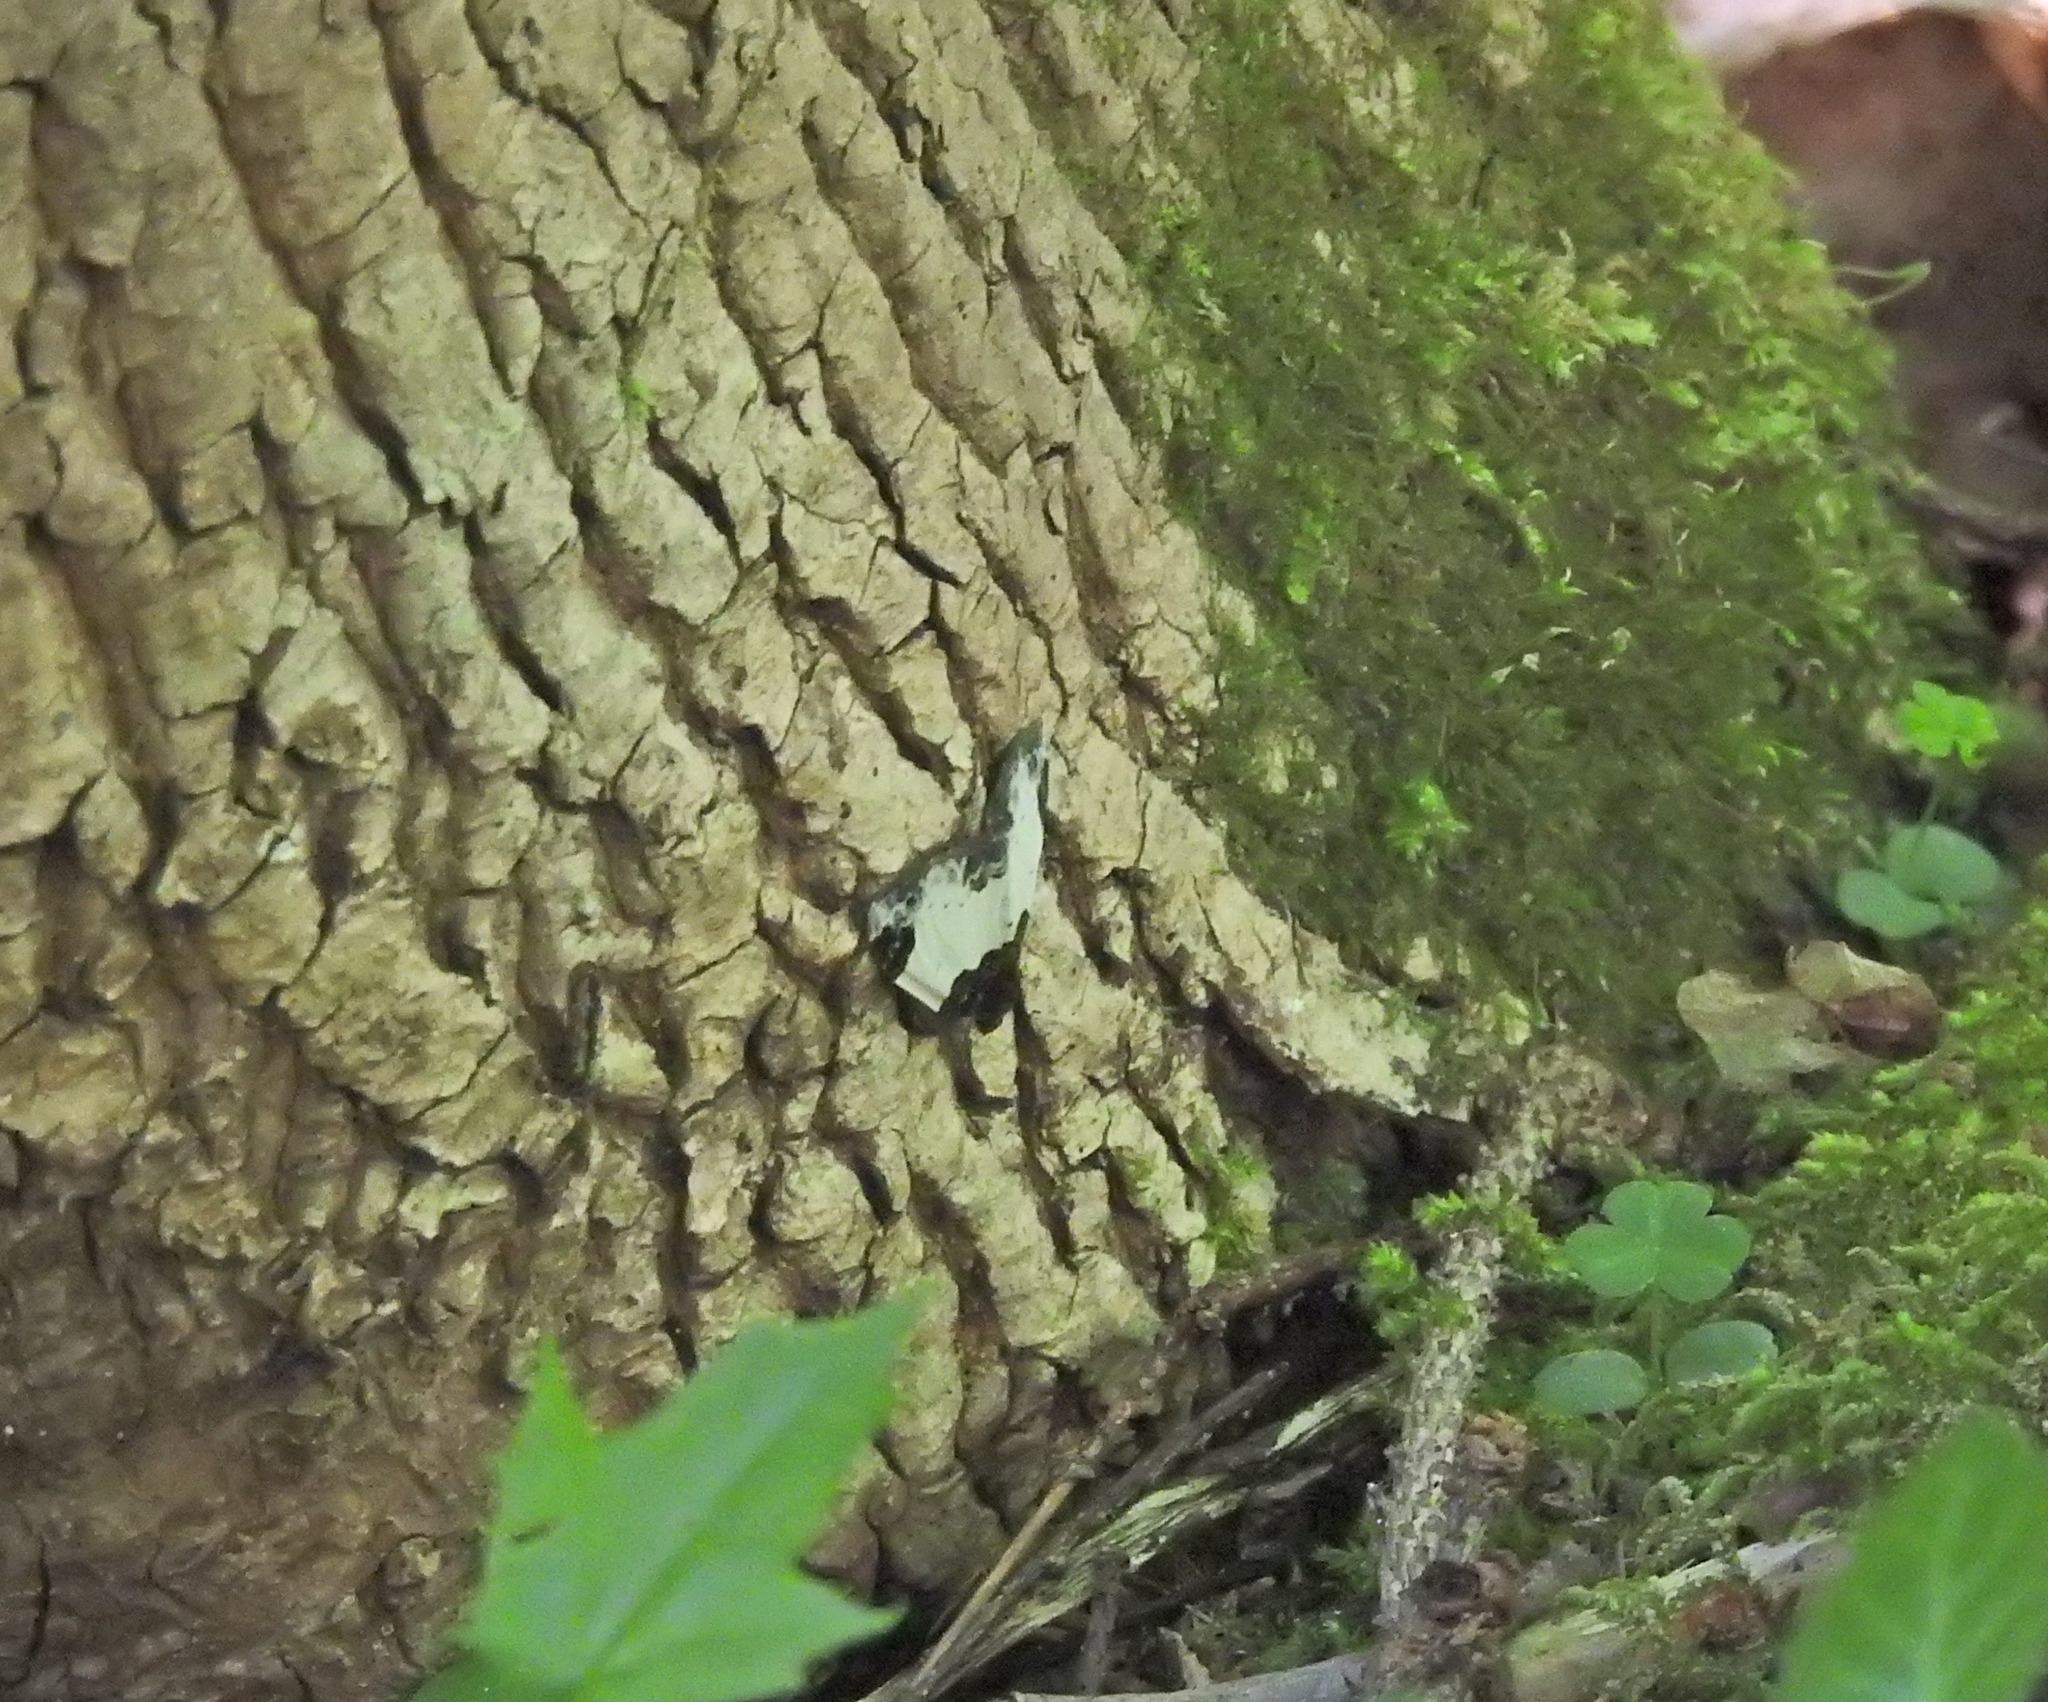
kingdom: Animalia
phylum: Arthropoda
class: Insecta
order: Lepidoptera
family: Geometridae
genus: Mesoleuca
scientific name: Mesoleuca albicillata
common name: Beautiful carpet
